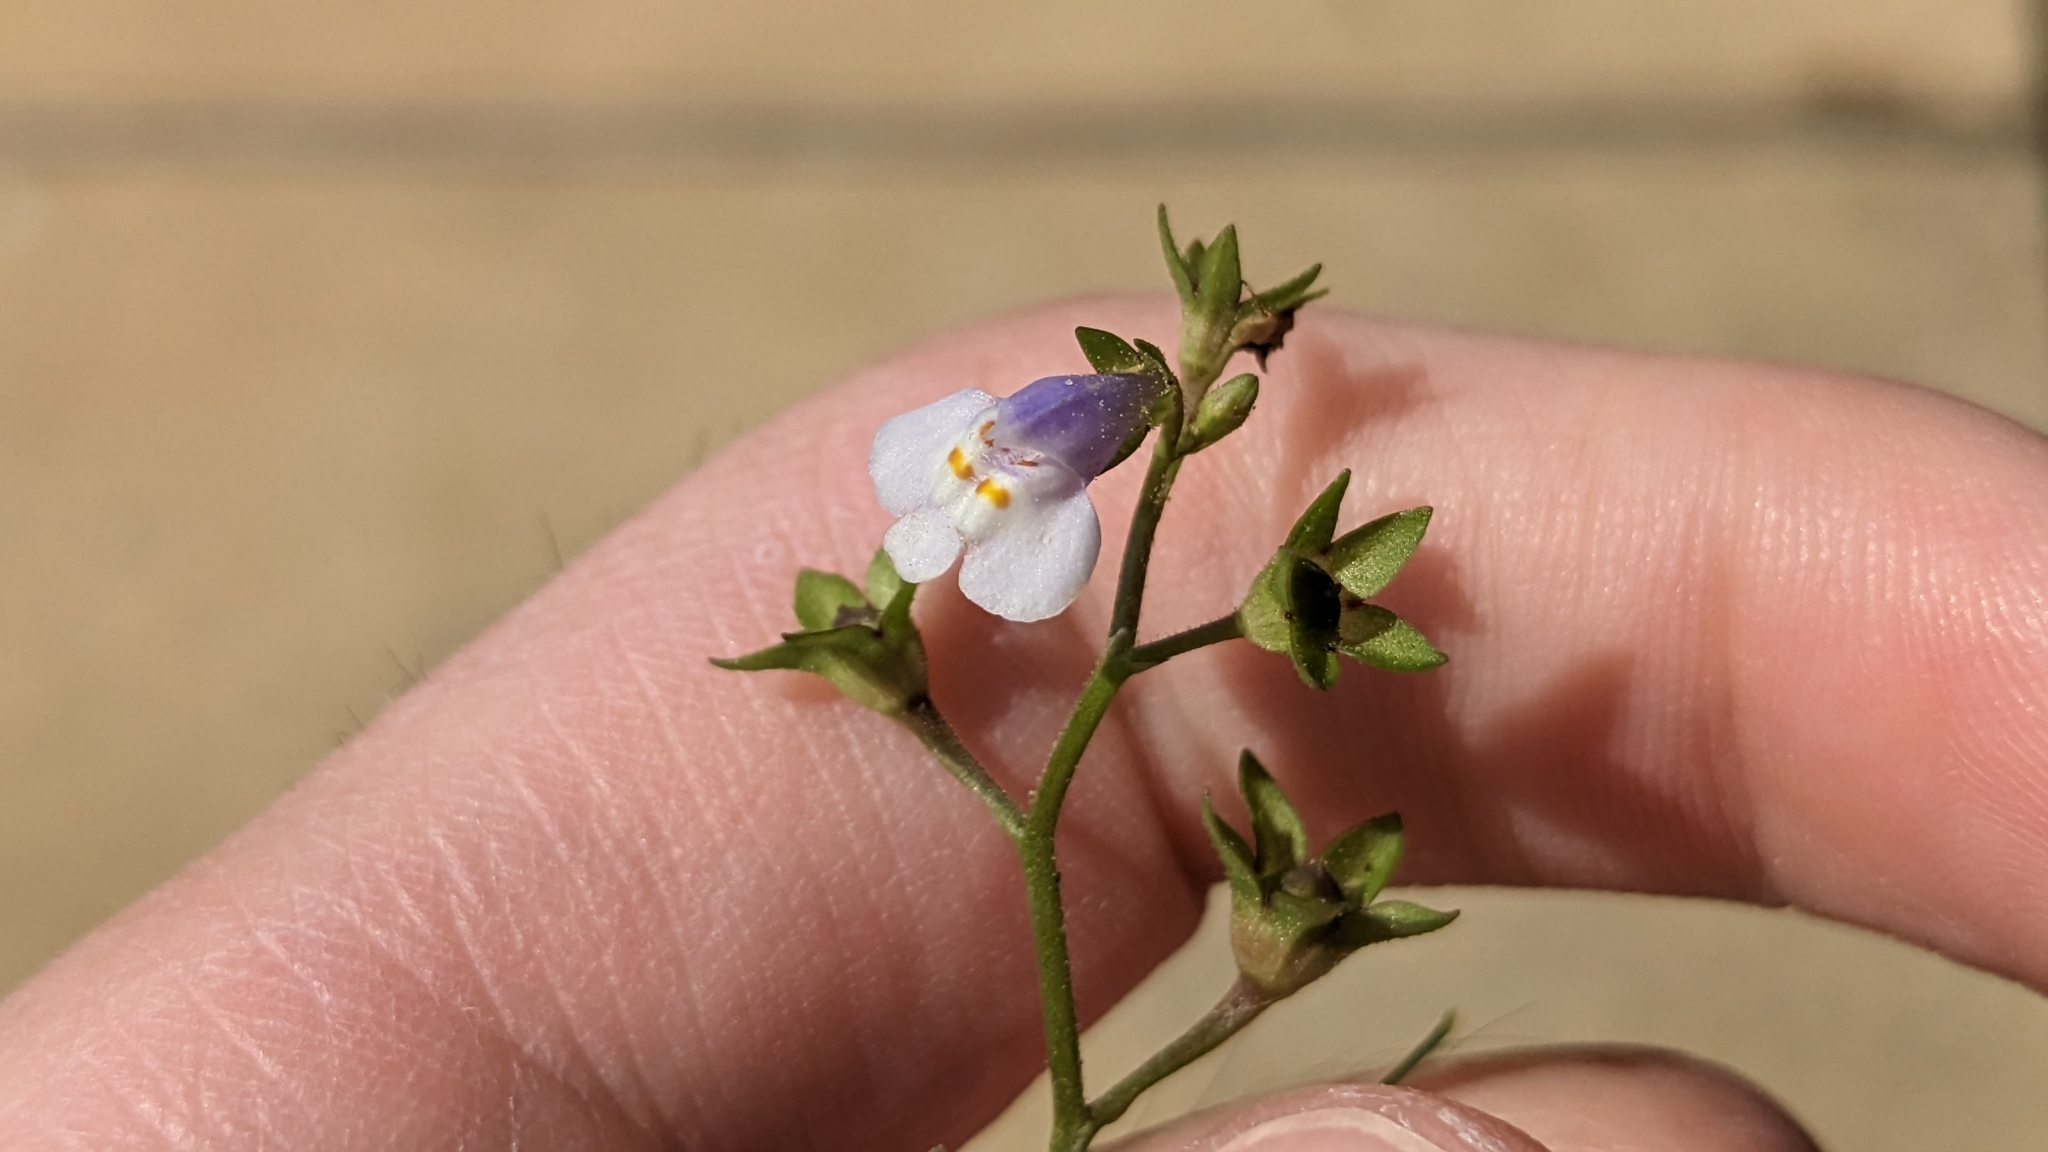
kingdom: Plantae
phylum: Tracheophyta
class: Magnoliopsida
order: Lamiales
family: Mazaceae
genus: Mazus
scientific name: Mazus pumilus
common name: Japanese mazus
